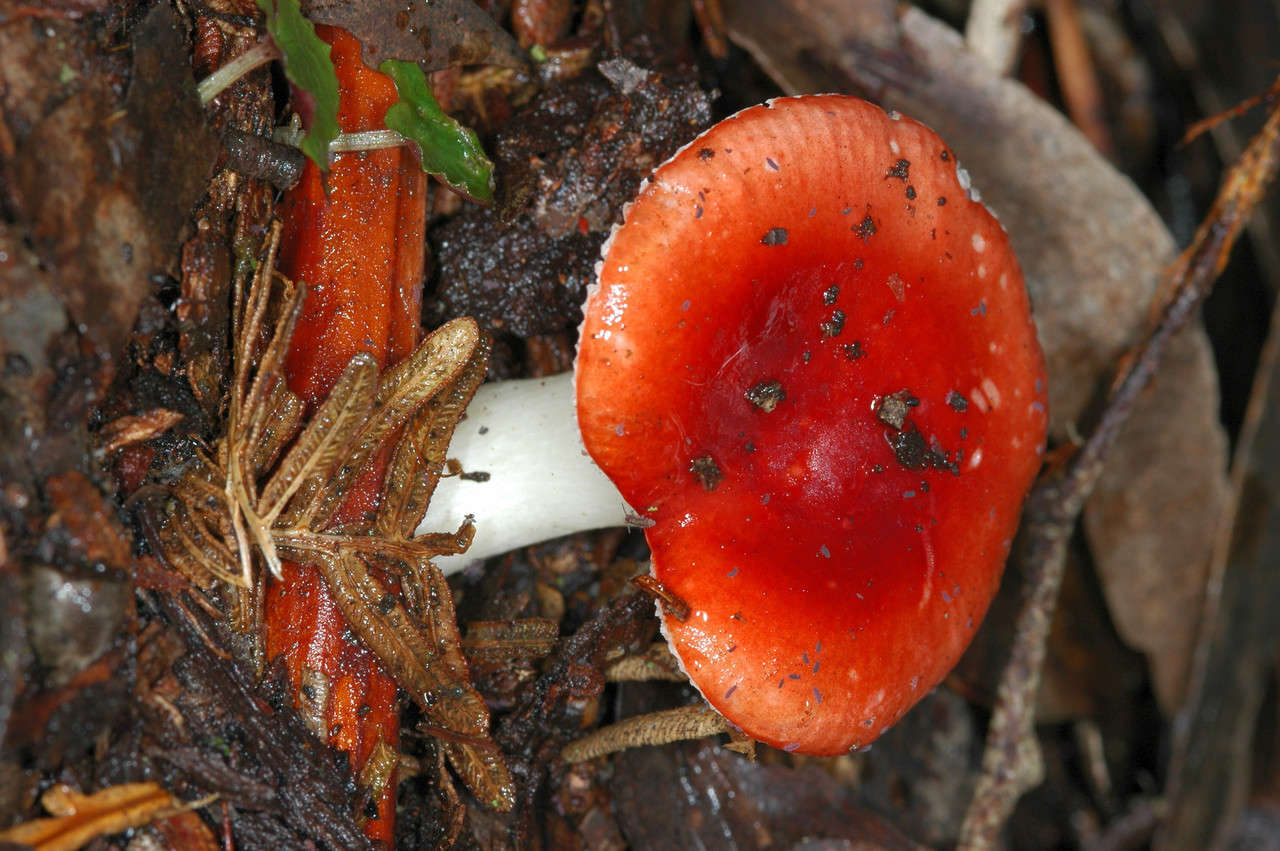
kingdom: Fungi
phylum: Basidiomycota
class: Agaricomycetes
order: Russulales
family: Russulaceae
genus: Russula
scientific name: Russula persanguinea
